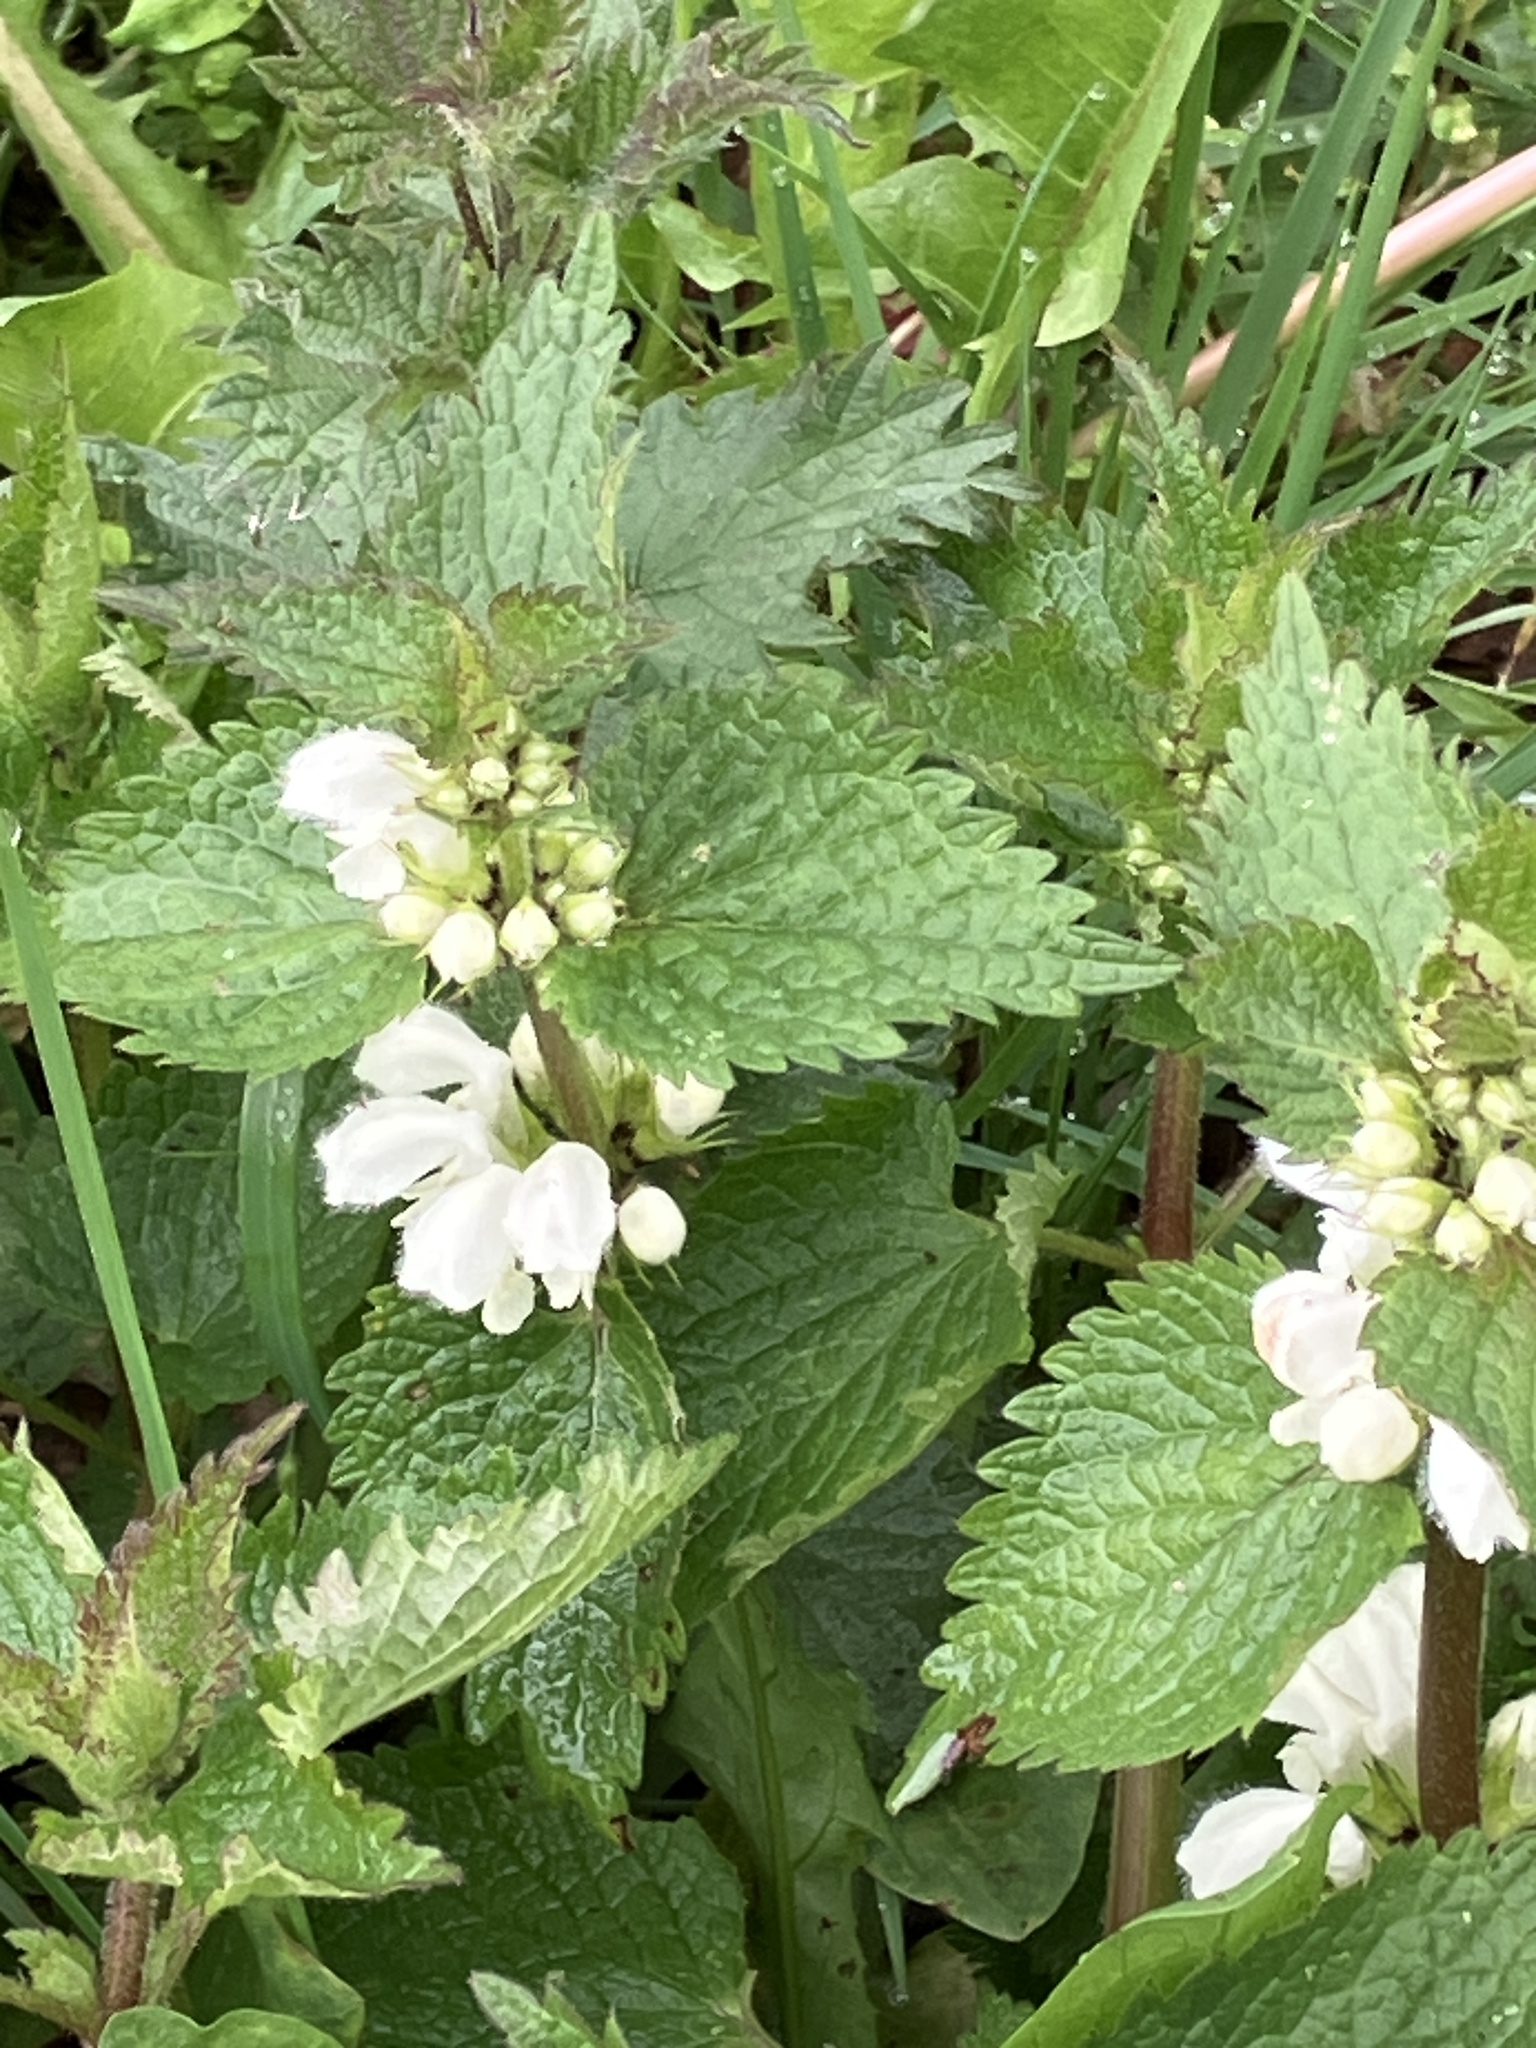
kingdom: Plantae
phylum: Tracheophyta
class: Magnoliopsida
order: Lamiales
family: Lamiaceae
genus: Lamium
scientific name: Lamium album
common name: White dead-nettle
